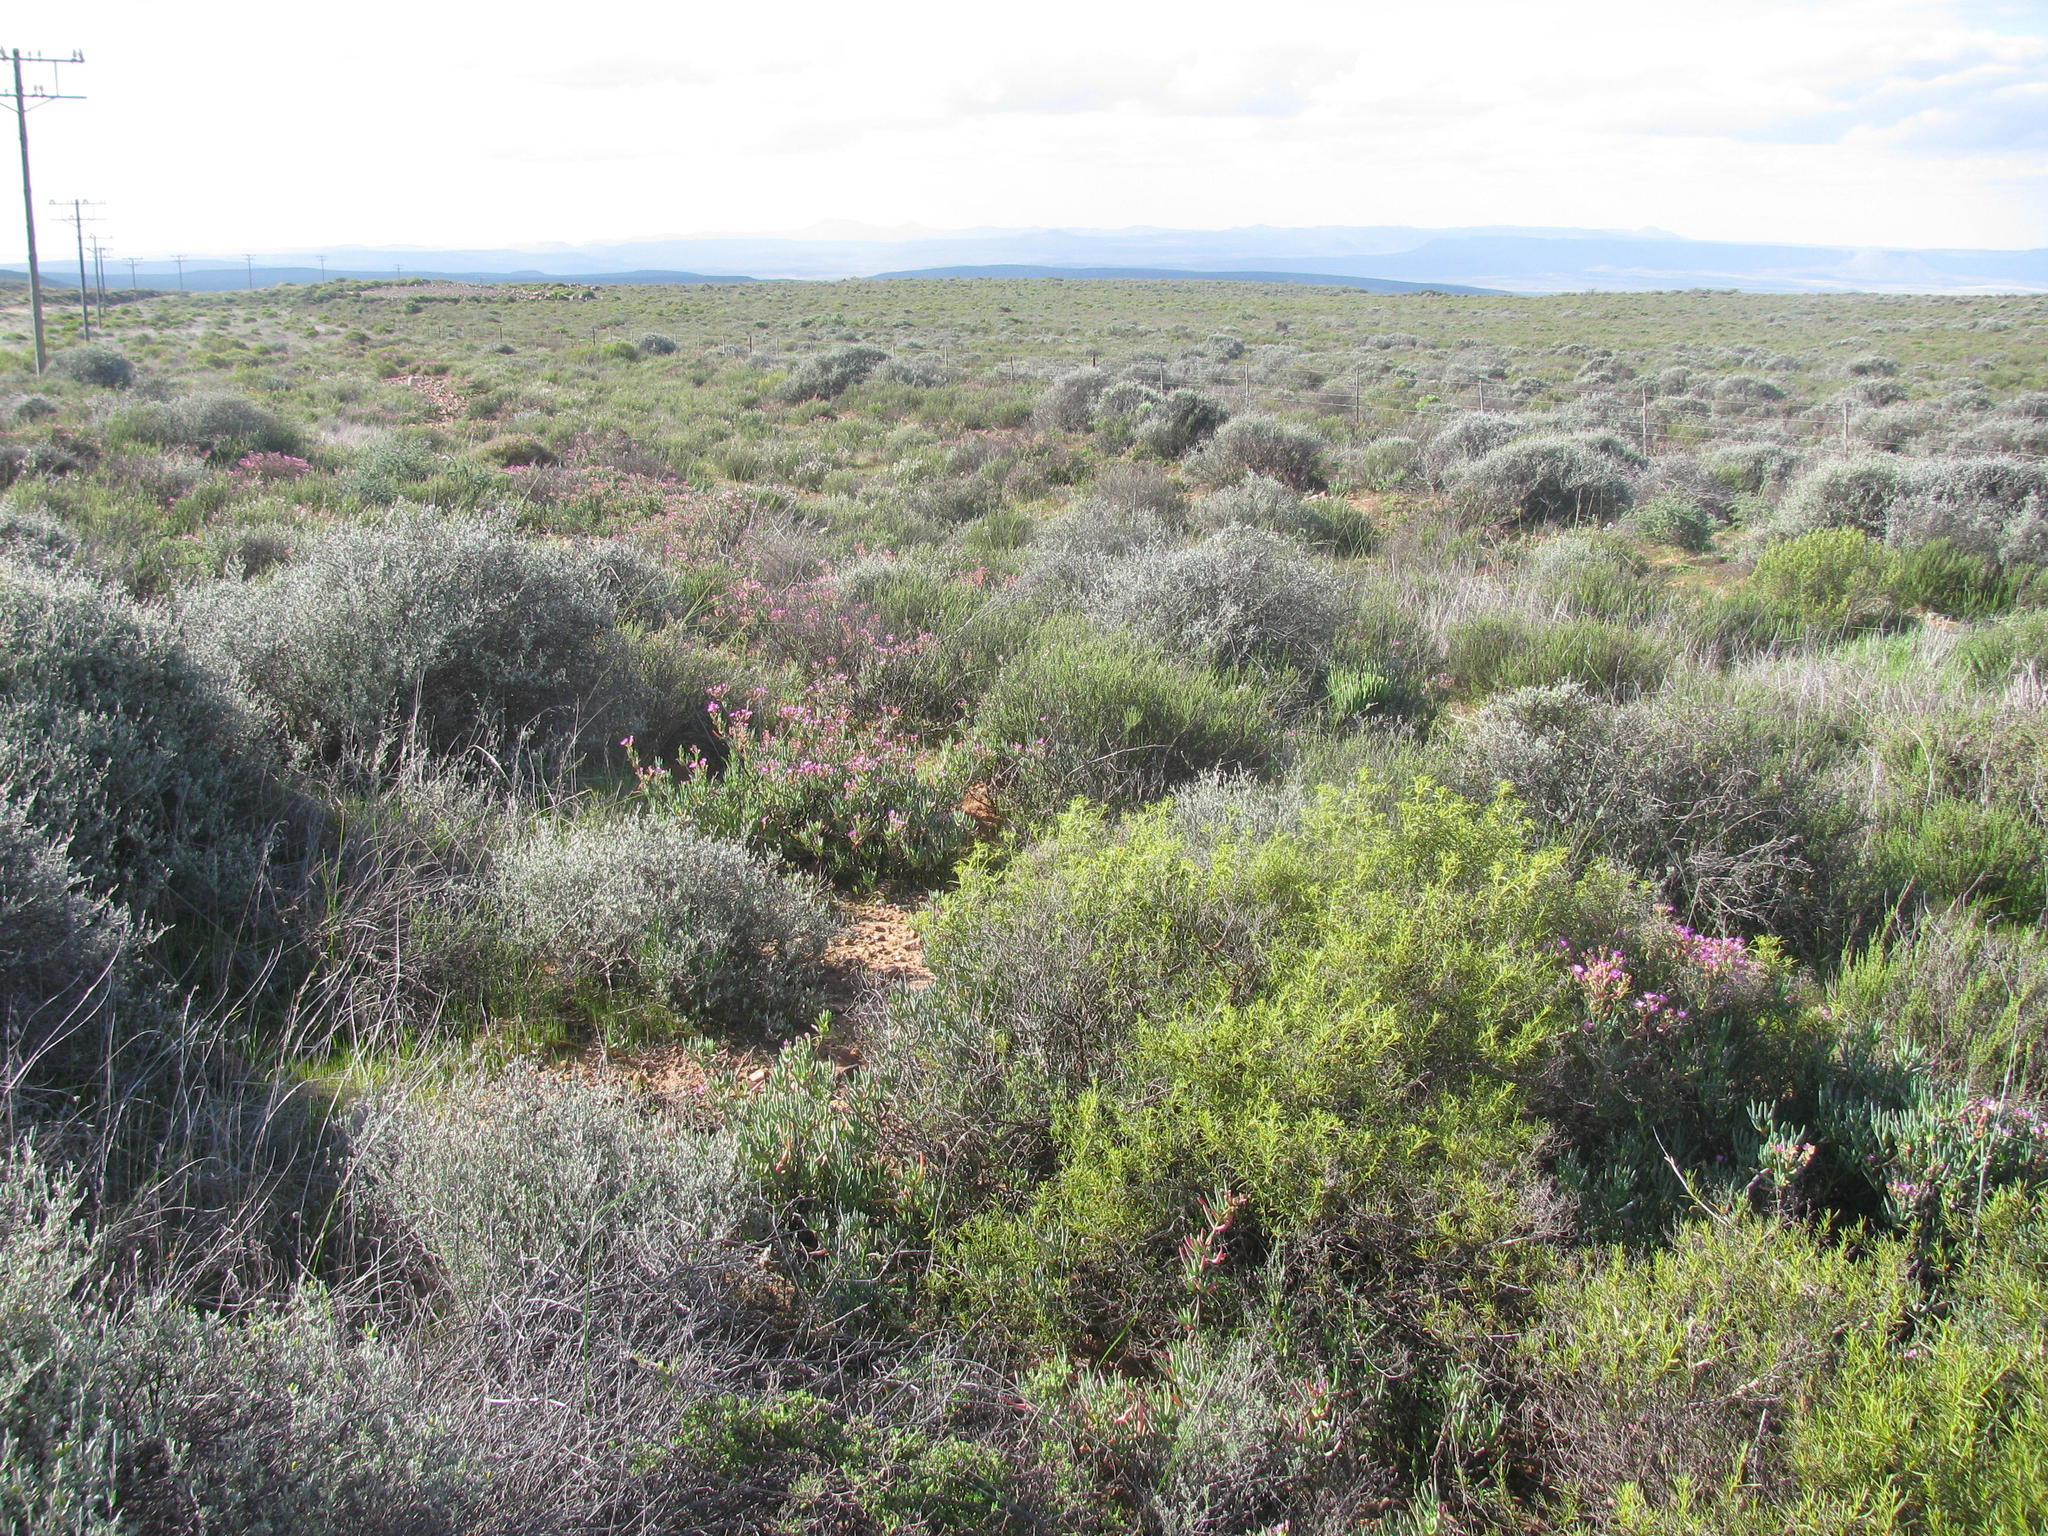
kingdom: Plantae
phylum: Tracheophyta
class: Magnoliopsida
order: Caryophyllales
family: Aizoaceae
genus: Ruschia
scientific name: Ruschia muelleri
